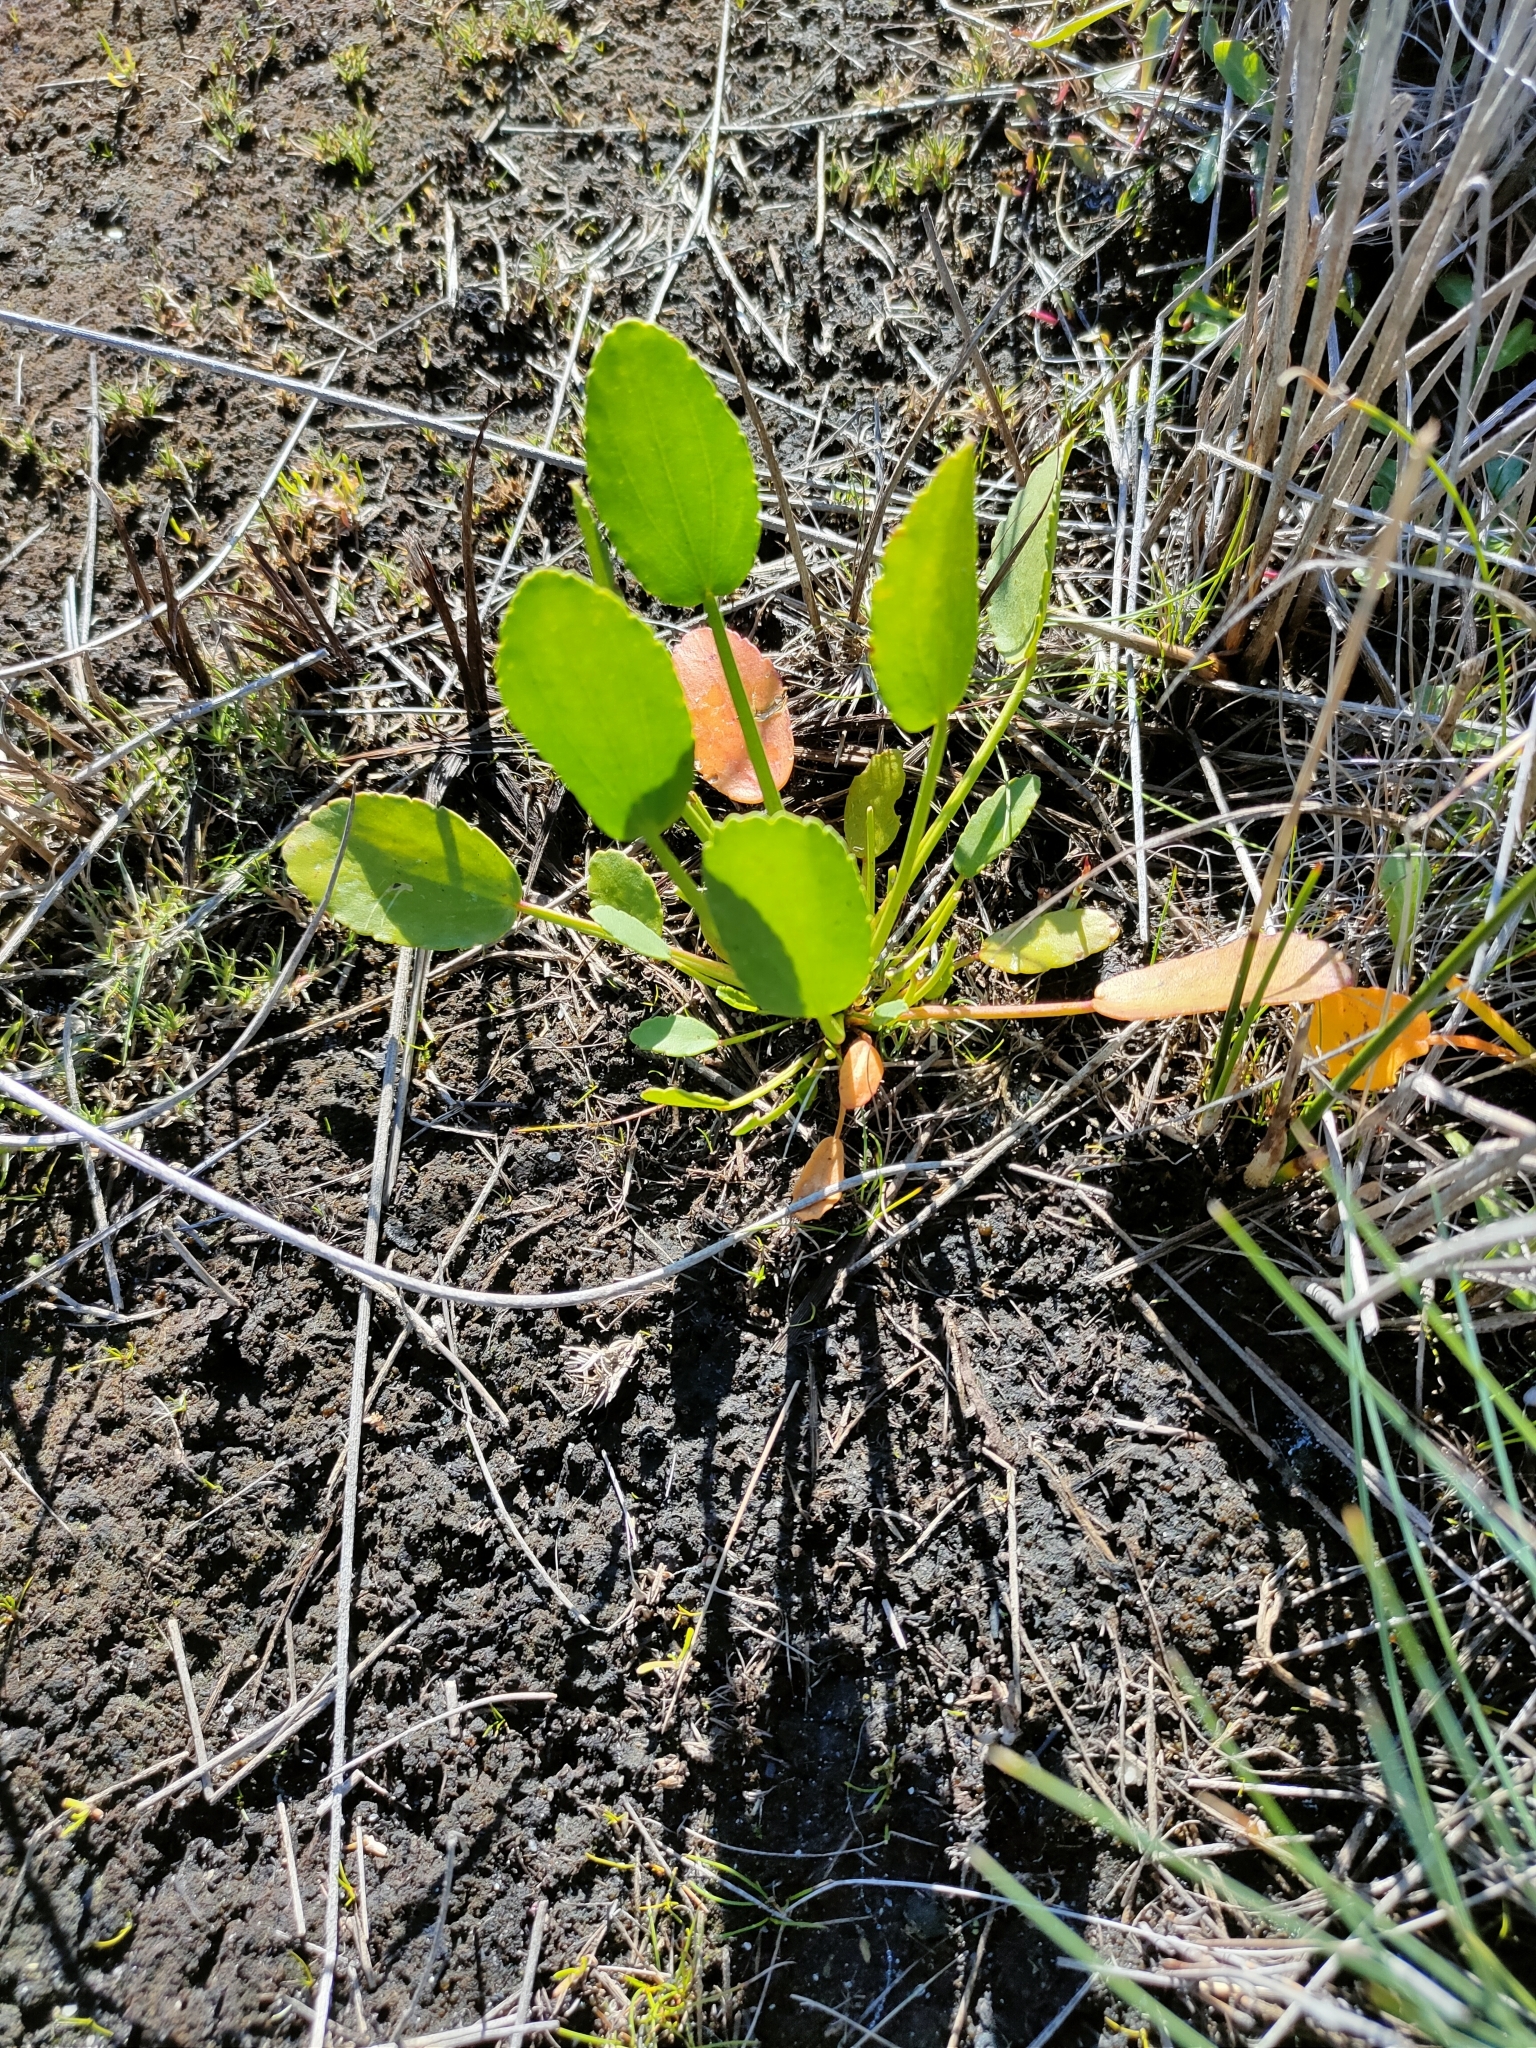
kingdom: Plantae
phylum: Tracheophyta
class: Magnoliopsida
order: Malvales
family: Malvaceae
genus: Lawrencia
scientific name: Lawrencia spicata
